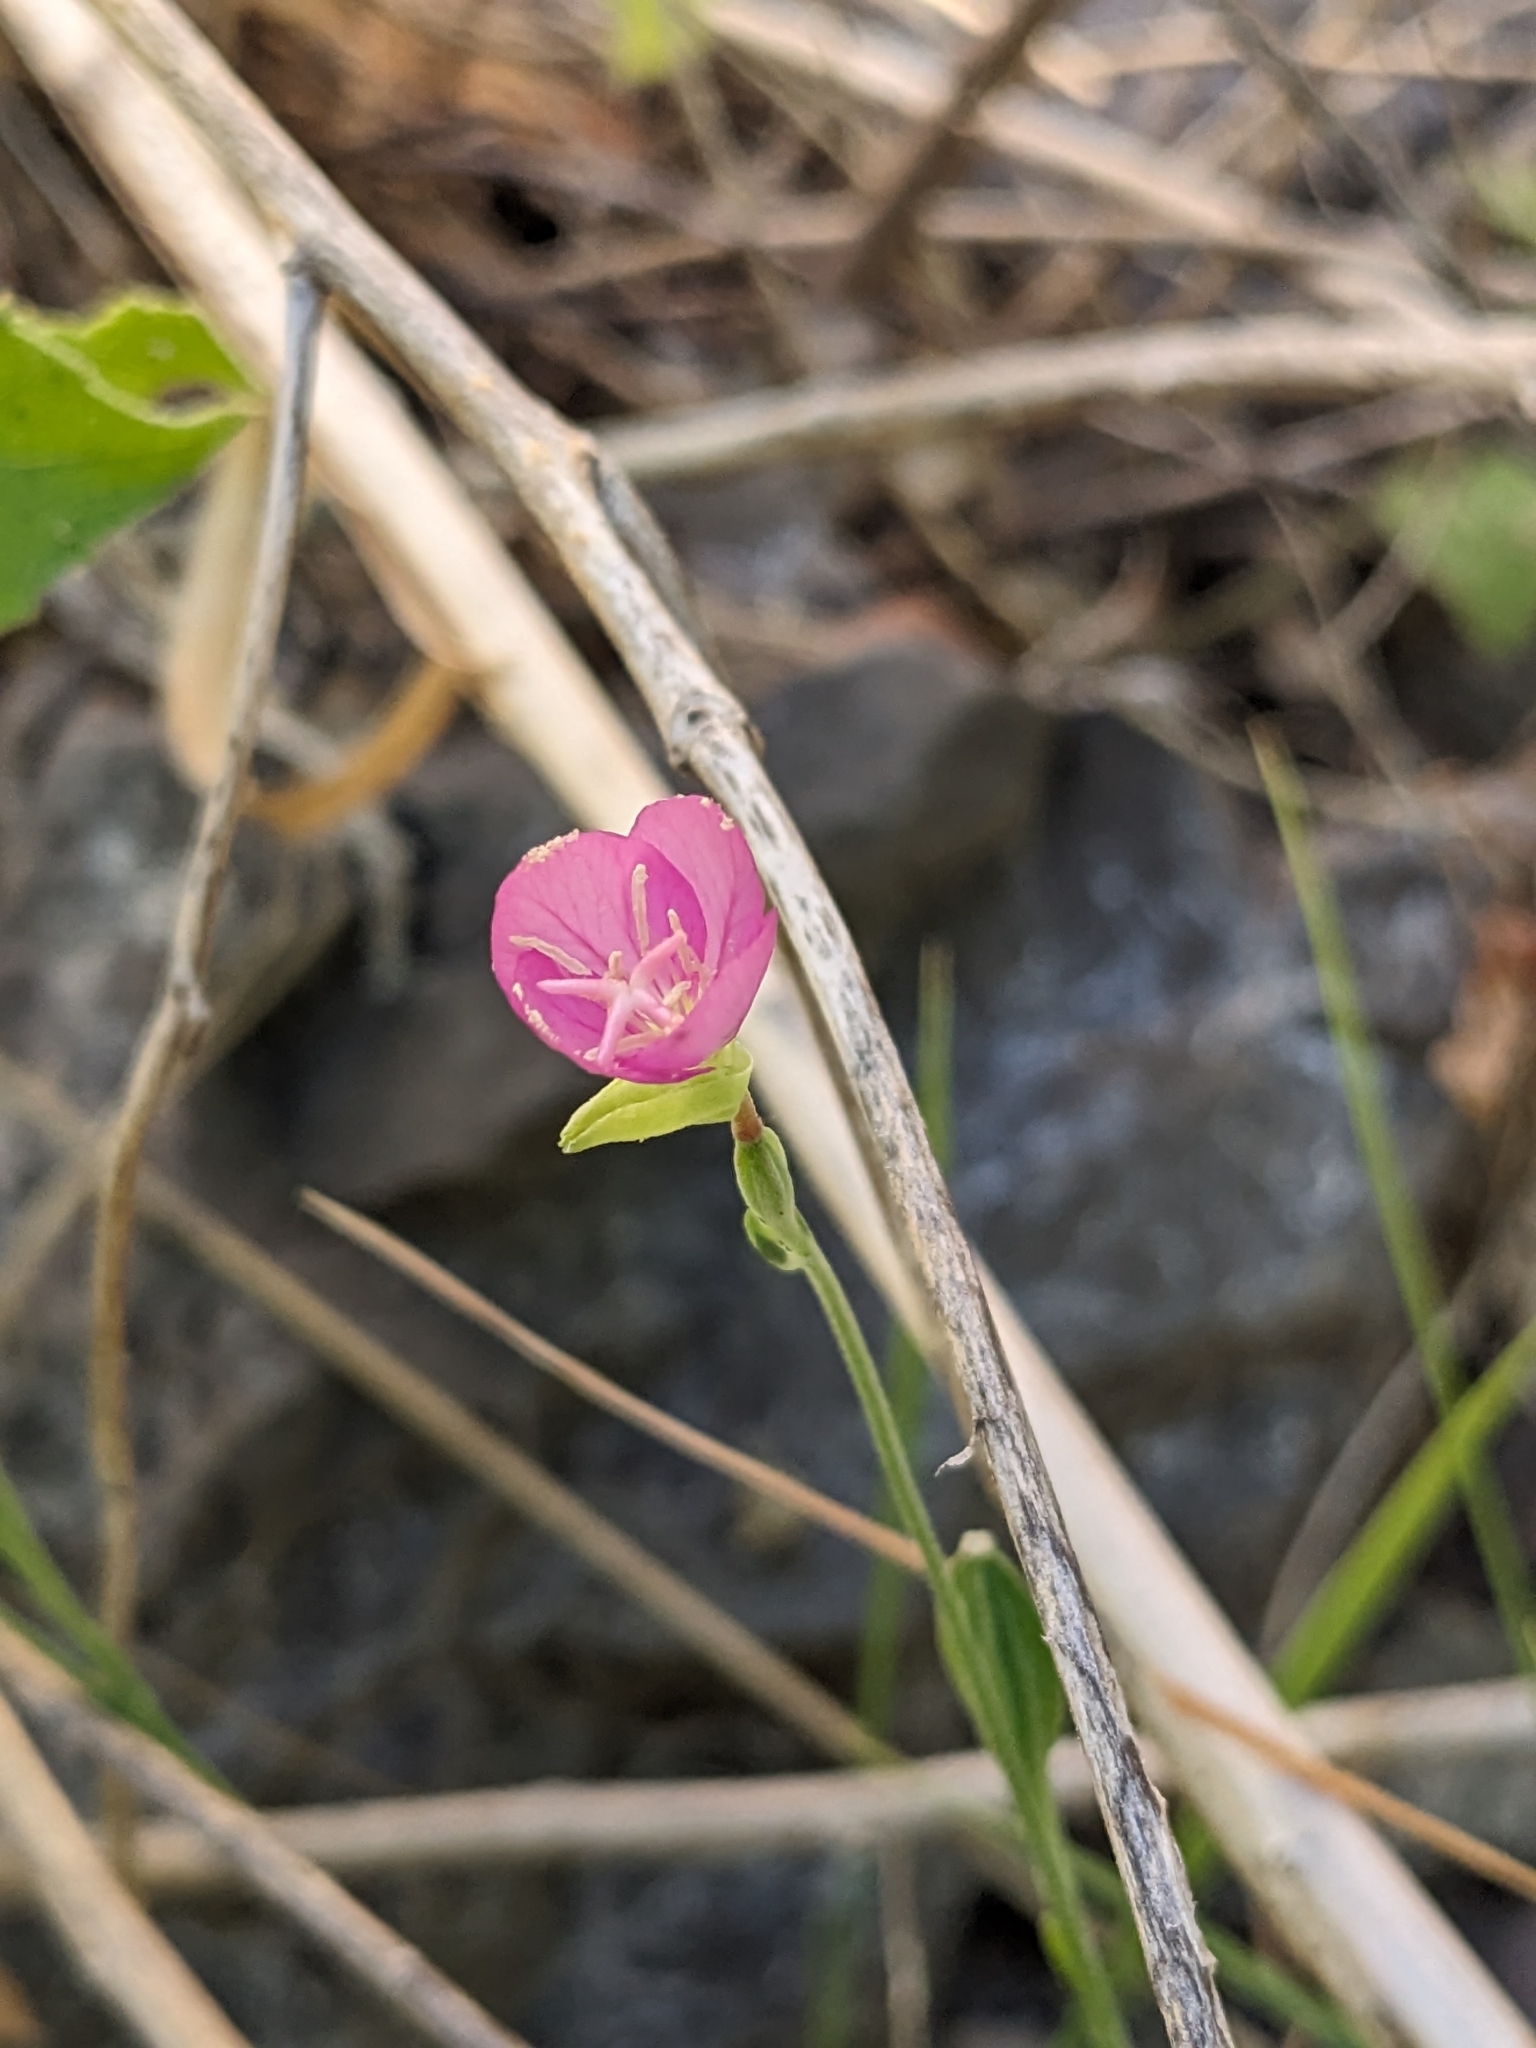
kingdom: Plantae
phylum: Tracheophyta
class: Magnoliopsida
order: Myrtales
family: Onagraceae
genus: Oenothera
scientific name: Oenothera rosea
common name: Rosy evening-primrose
